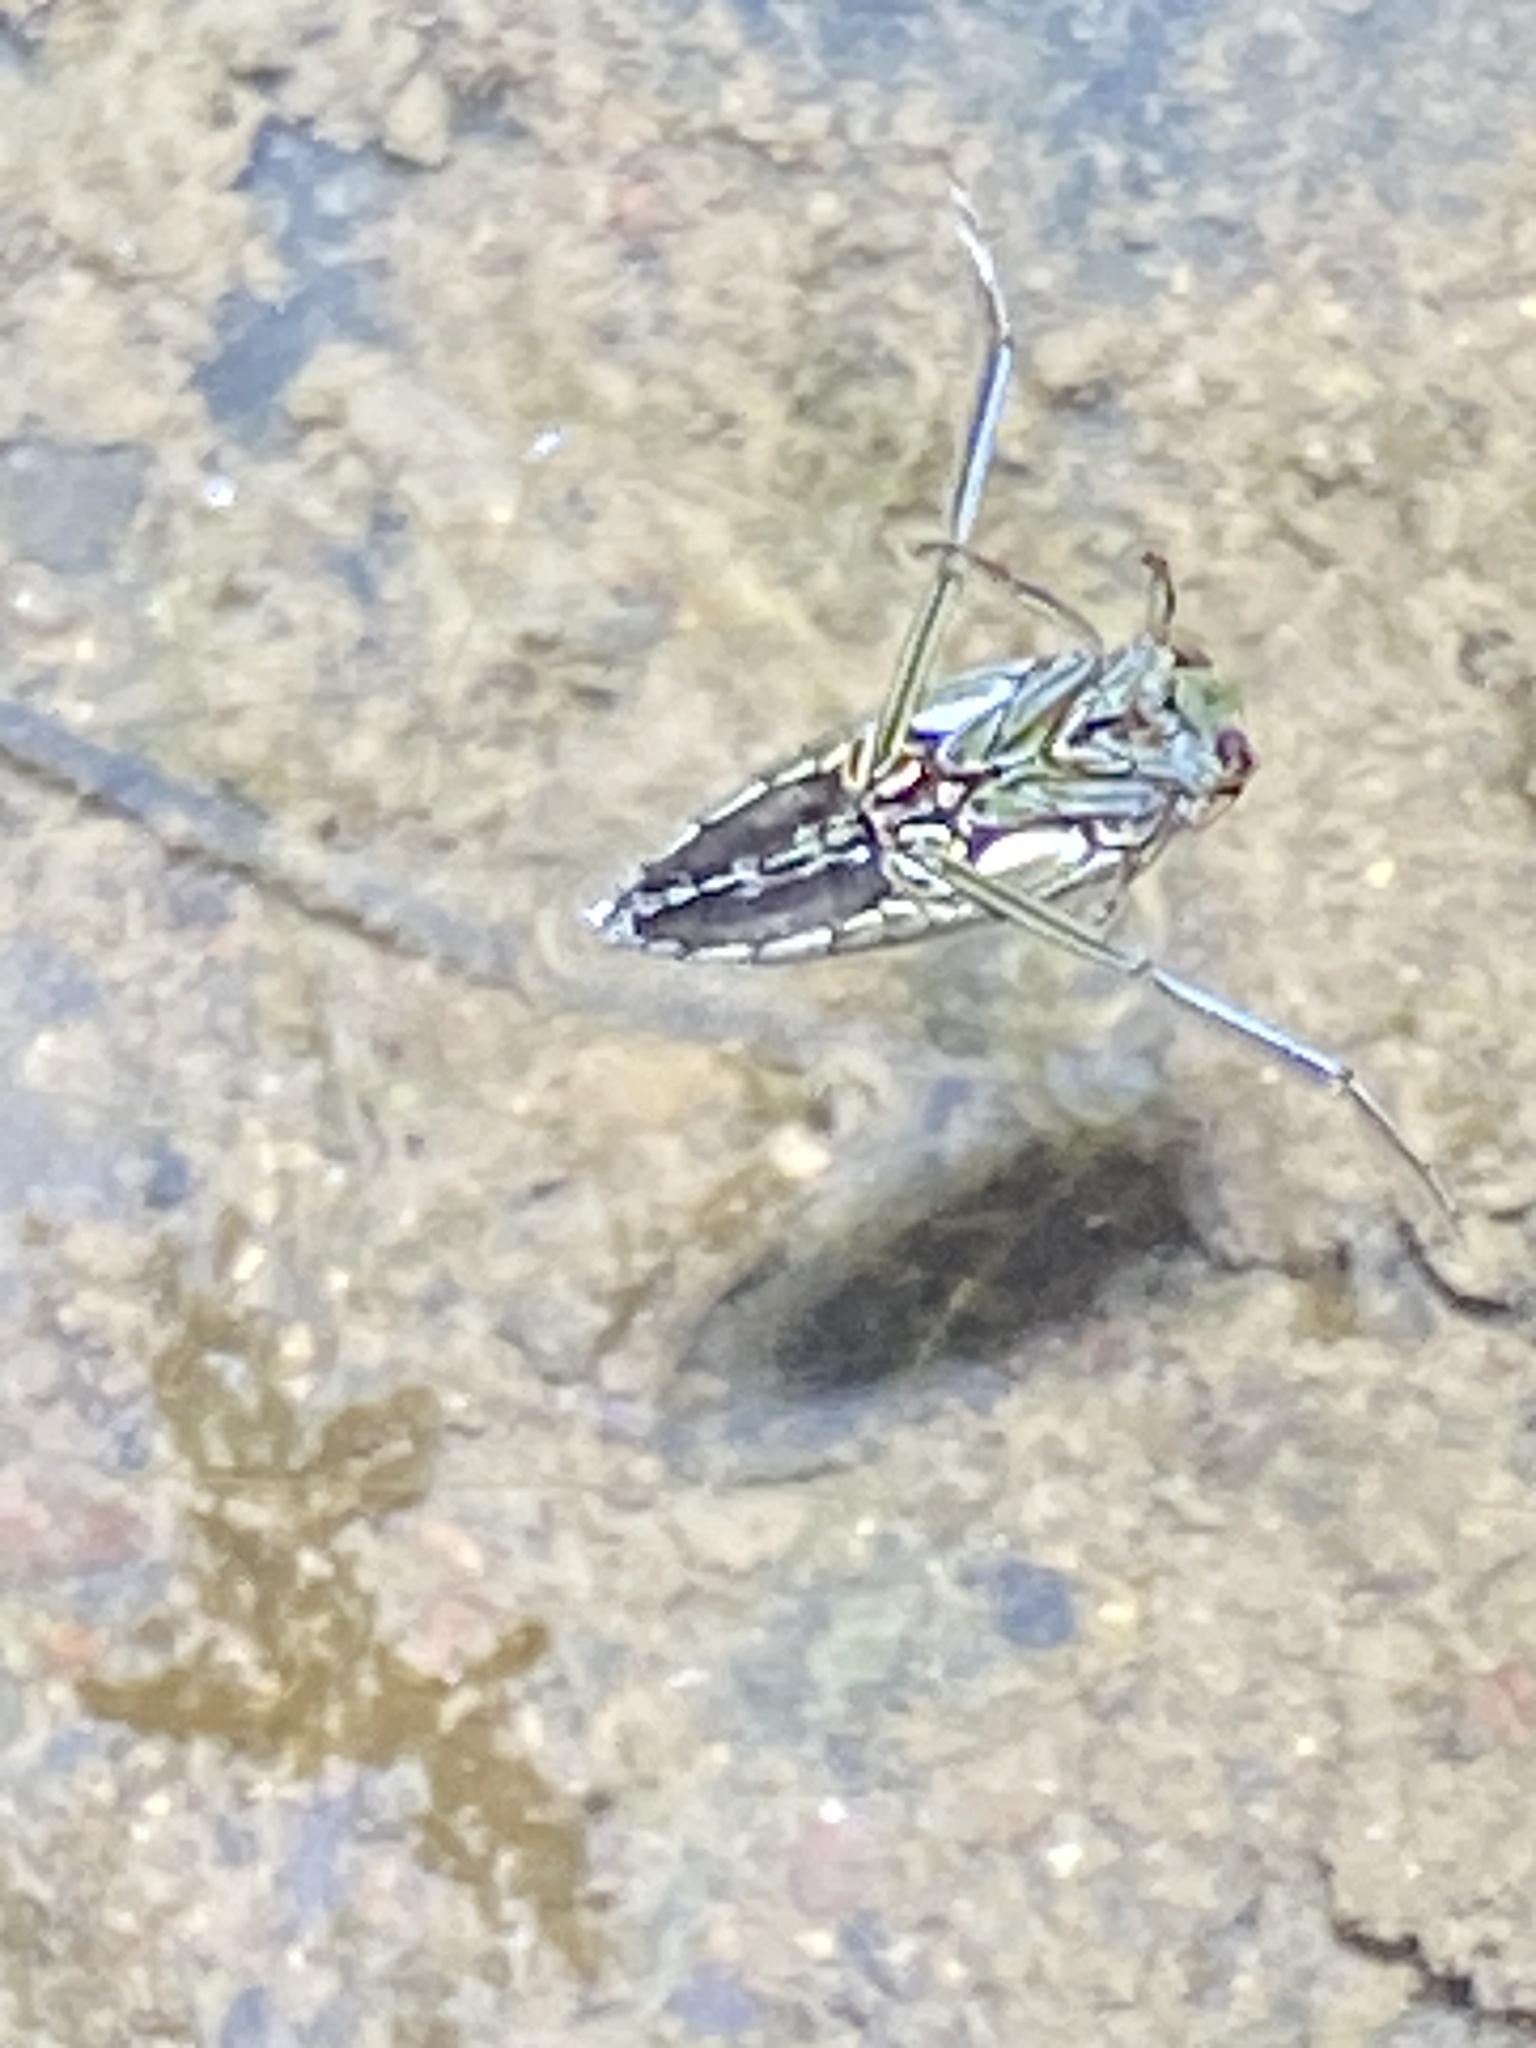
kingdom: Animalia
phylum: Arthropoda
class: Insecta
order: Hemiptera
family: Notonectidae
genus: Enithares
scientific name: Enithares
